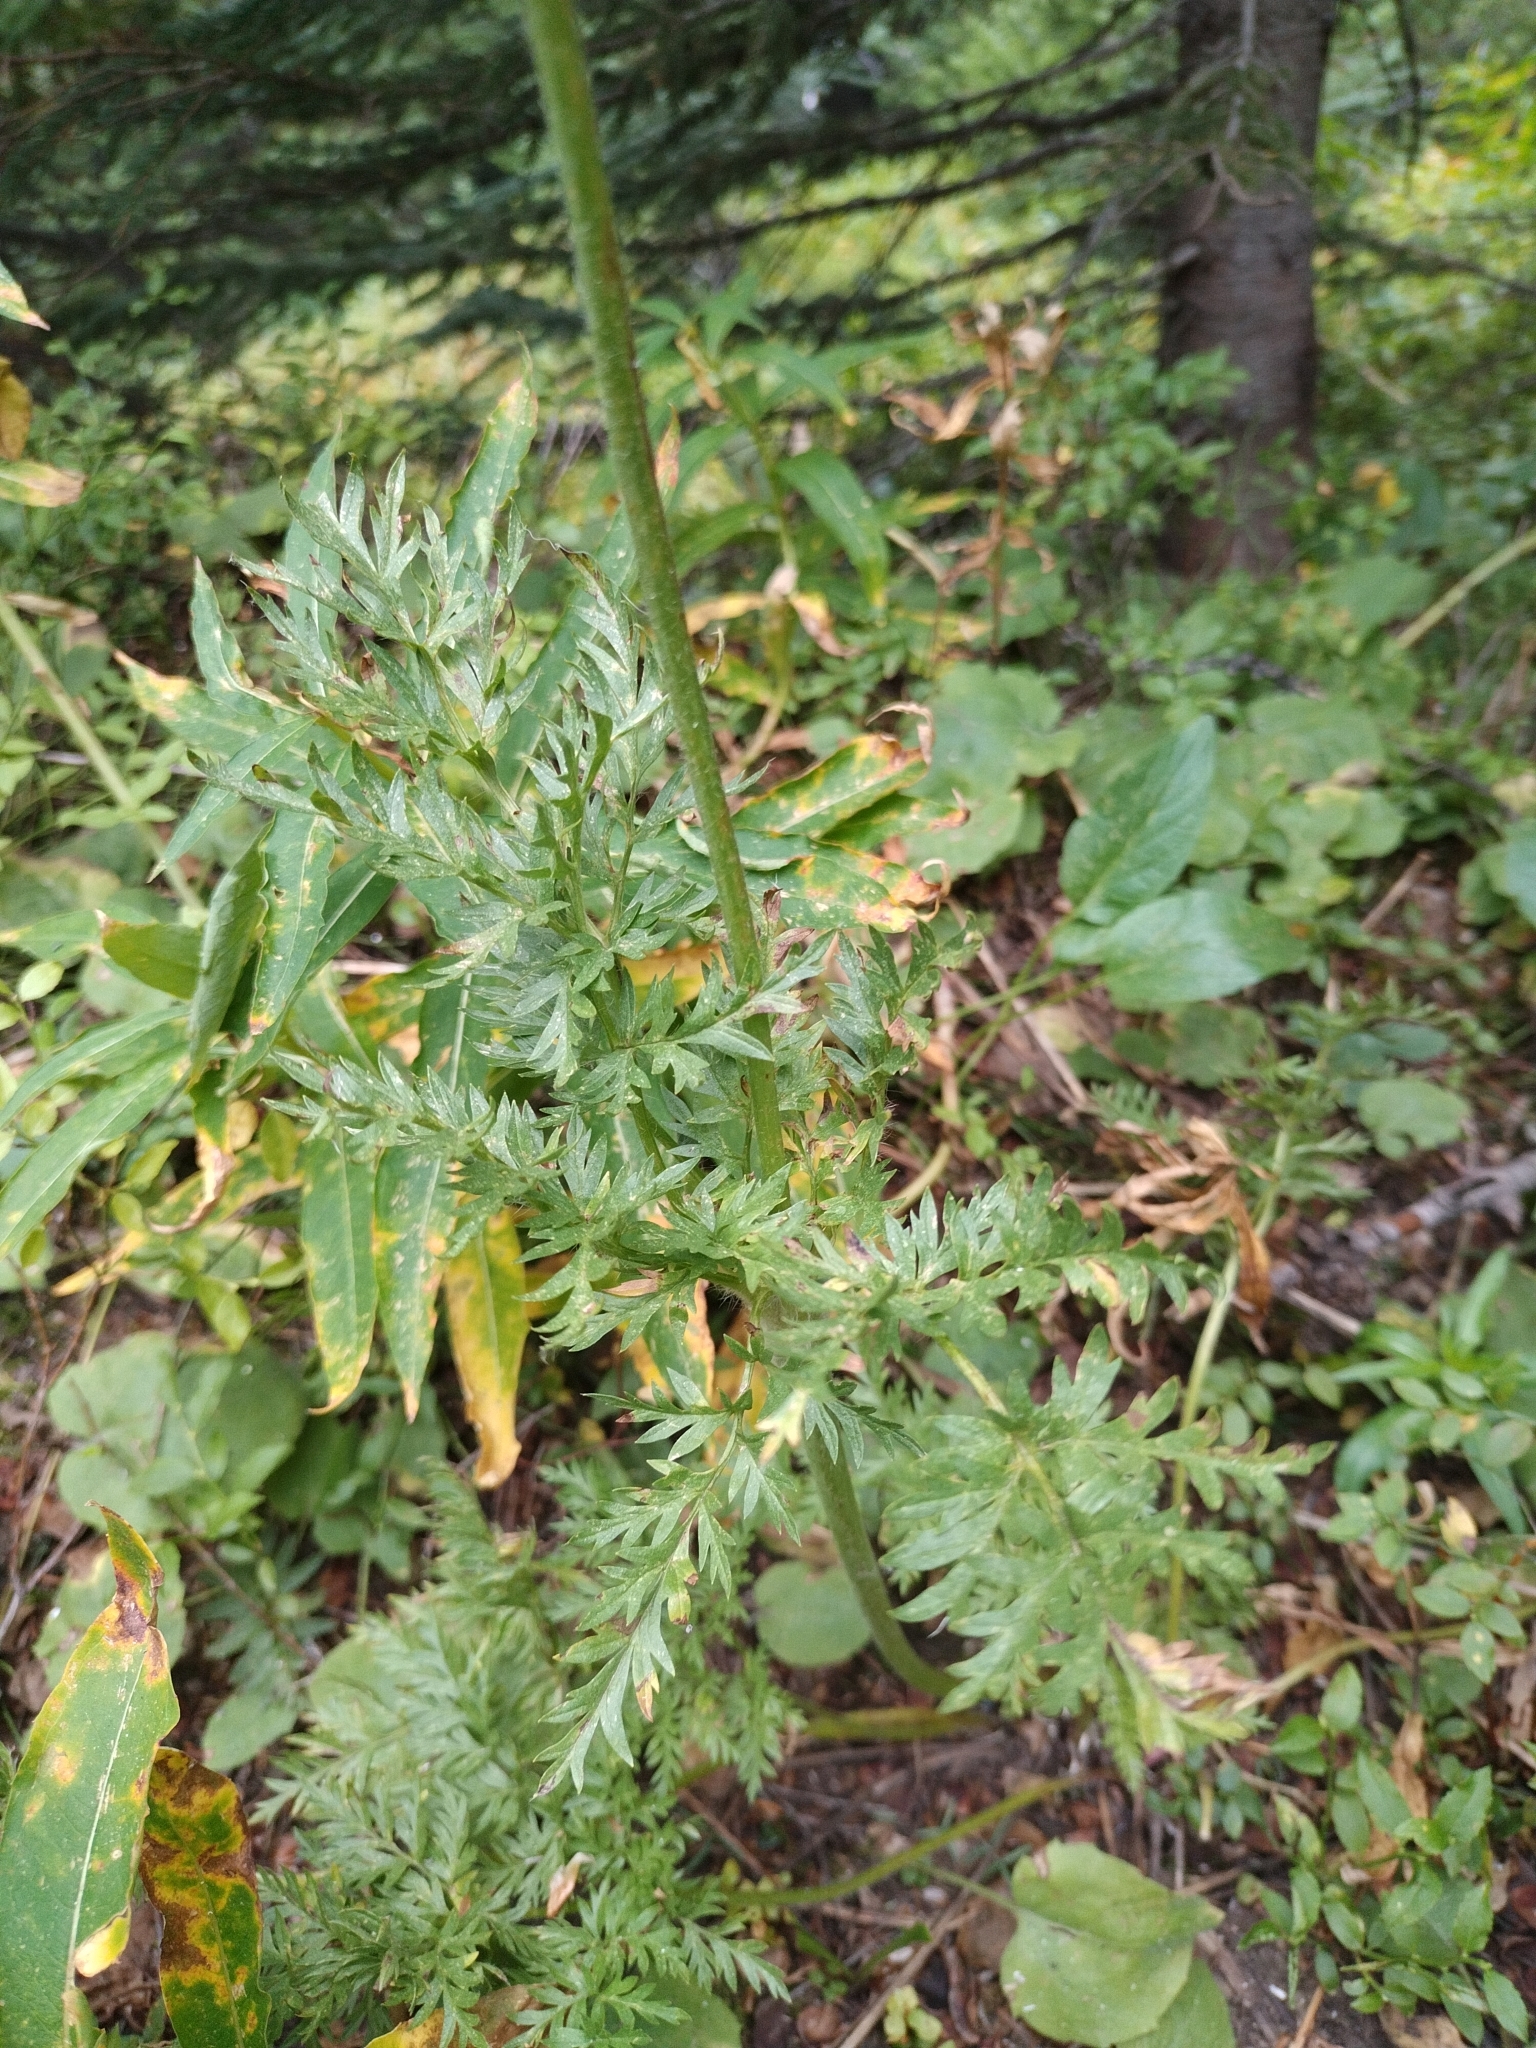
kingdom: Plantae
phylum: Tracheophyta
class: Magnoliopsida
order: Ranunculales
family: Ranunculaceae
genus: Pulsatilla
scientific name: Pulsatilla occidentalis
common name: Mountain pasqueflower
